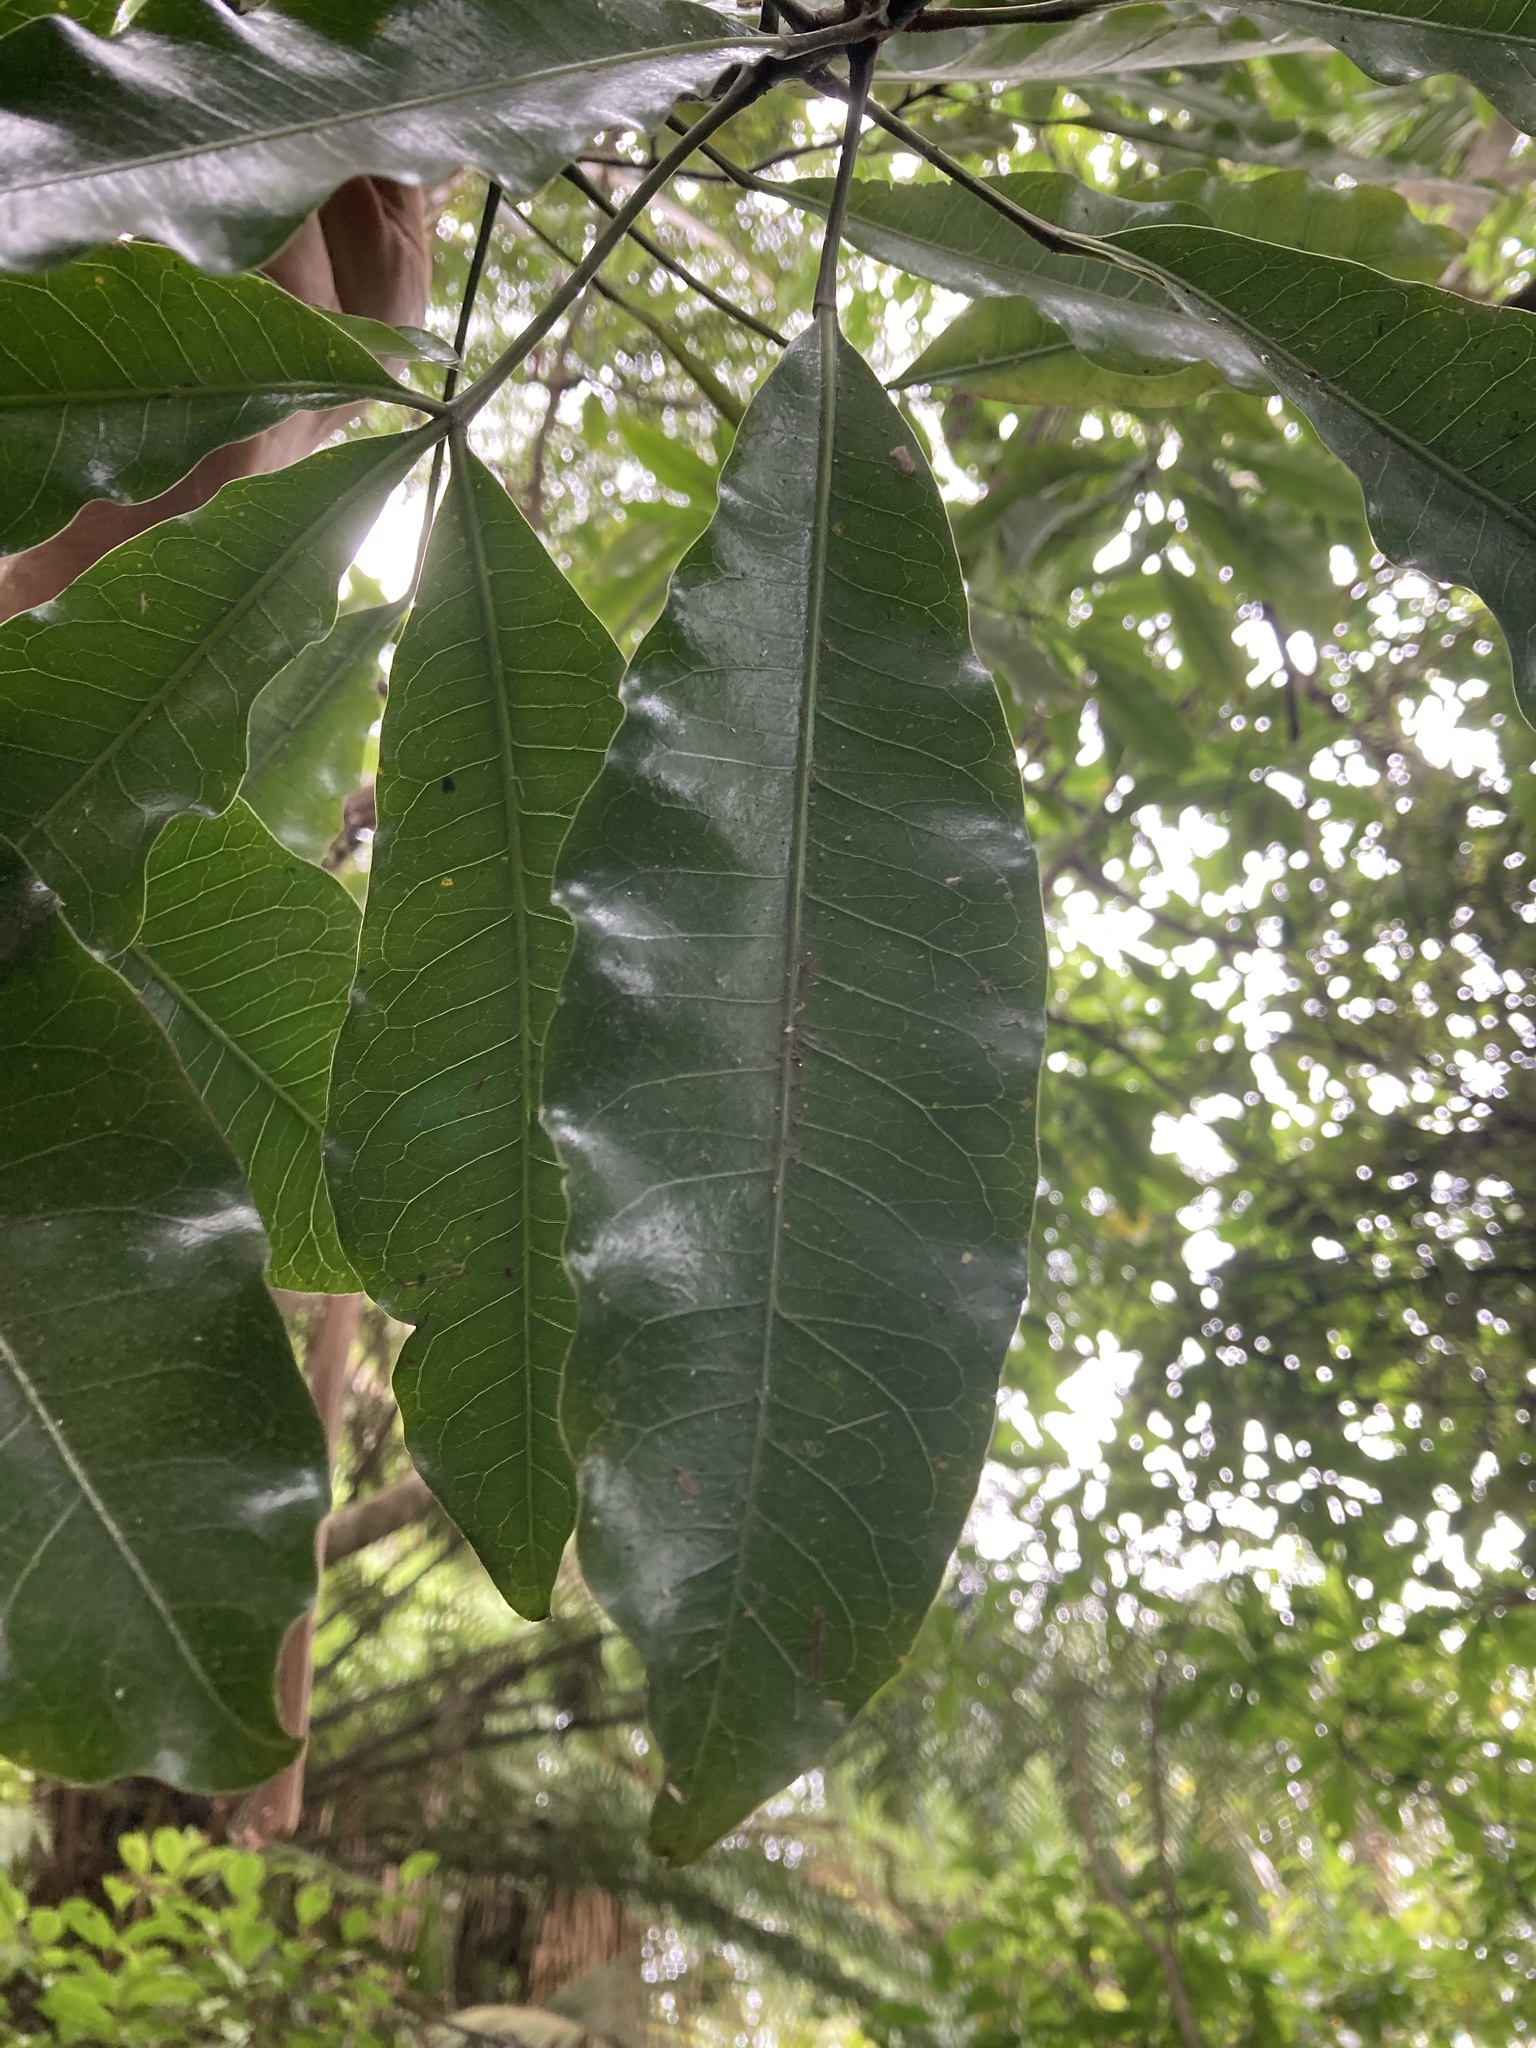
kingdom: Plantae
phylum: Tracheophyta
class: Magnoliopsida
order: Apiales
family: Araliaceae
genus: Raukaua
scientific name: Raukaua edgerleyi
